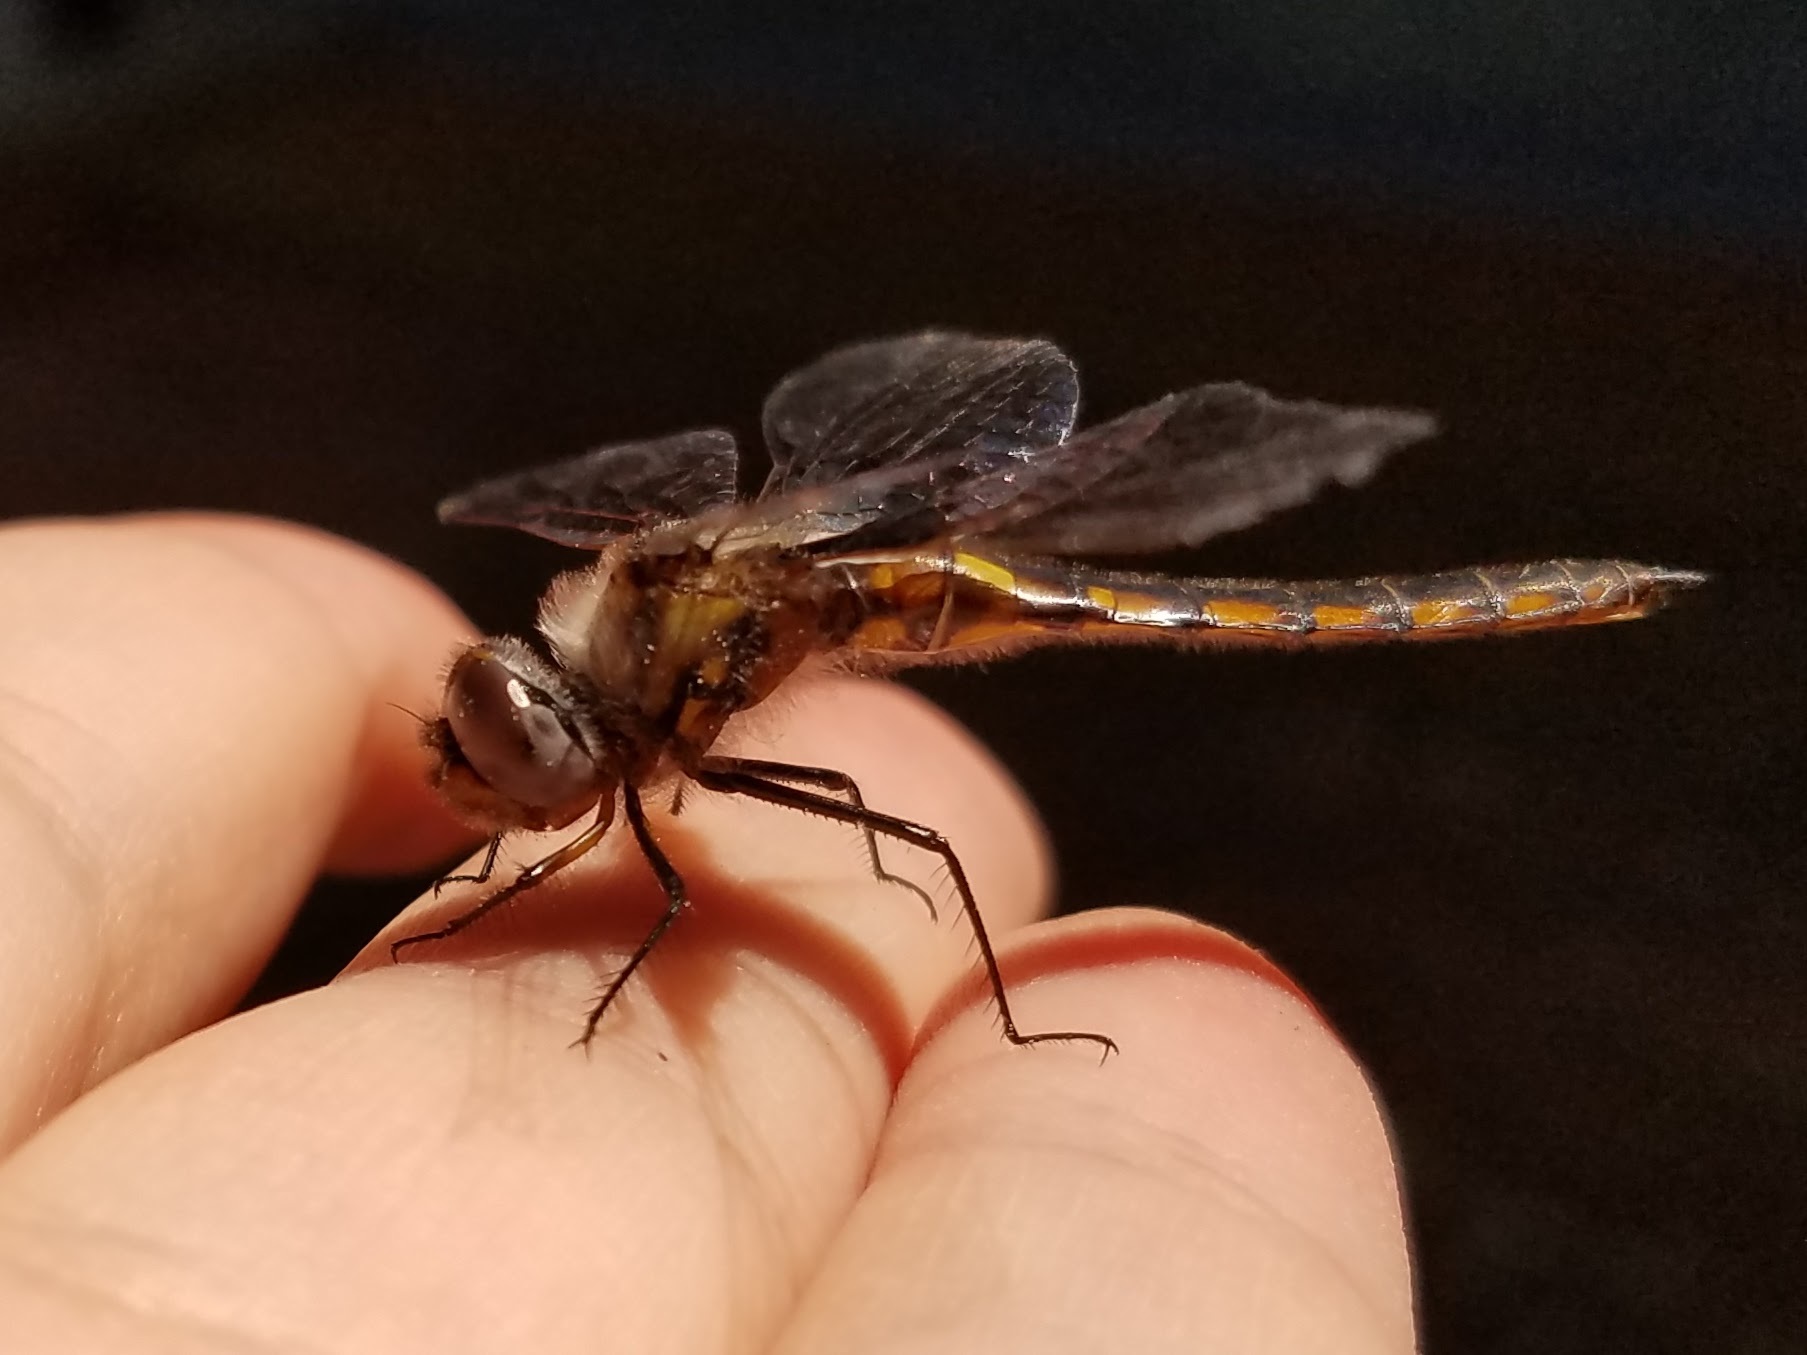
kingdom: Animalia
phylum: Arthropoda
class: Insecta
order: Odonata
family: Corduliidae
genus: Epitheca
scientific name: Epitheca cynosura
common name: Common baskettail
